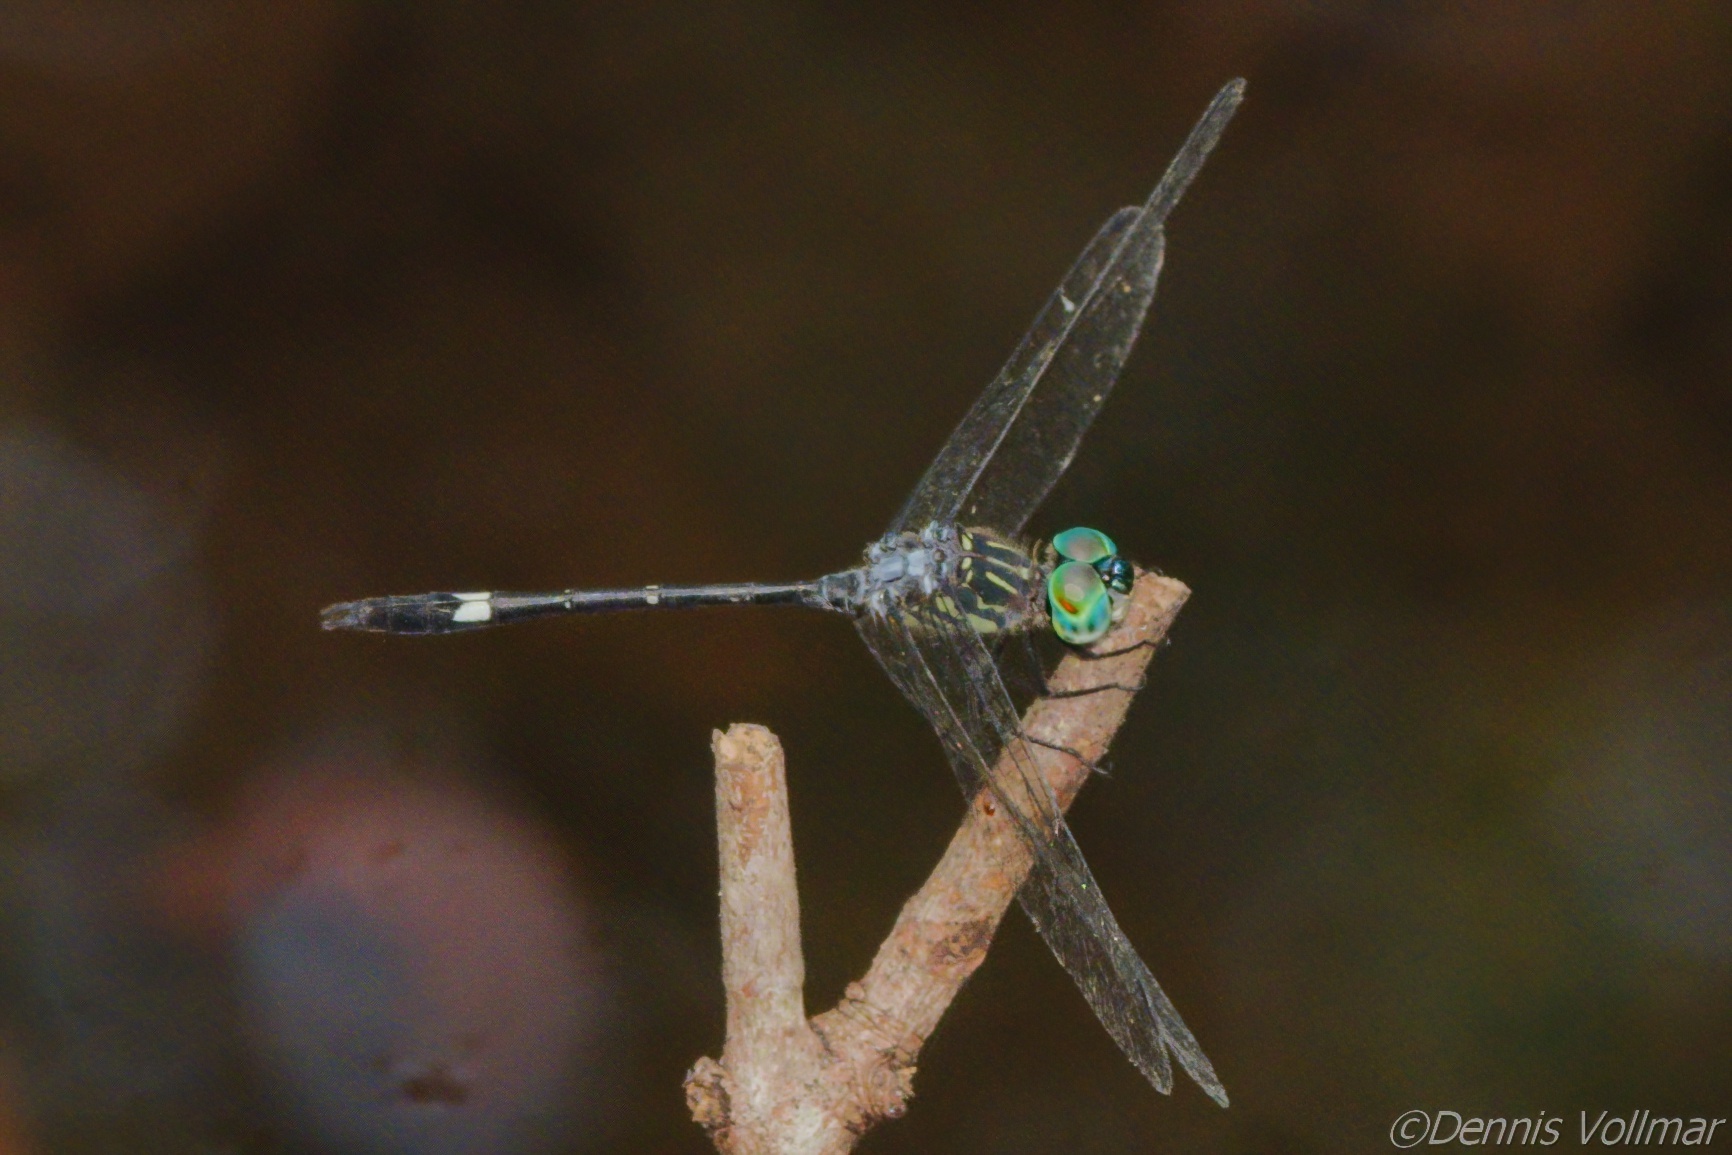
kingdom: Animalia
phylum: Arthropoda
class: Insecta
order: Odonata
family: Libellulidae
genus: Micrathyria
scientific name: Micrathyria didyma
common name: Three-striped dasher
